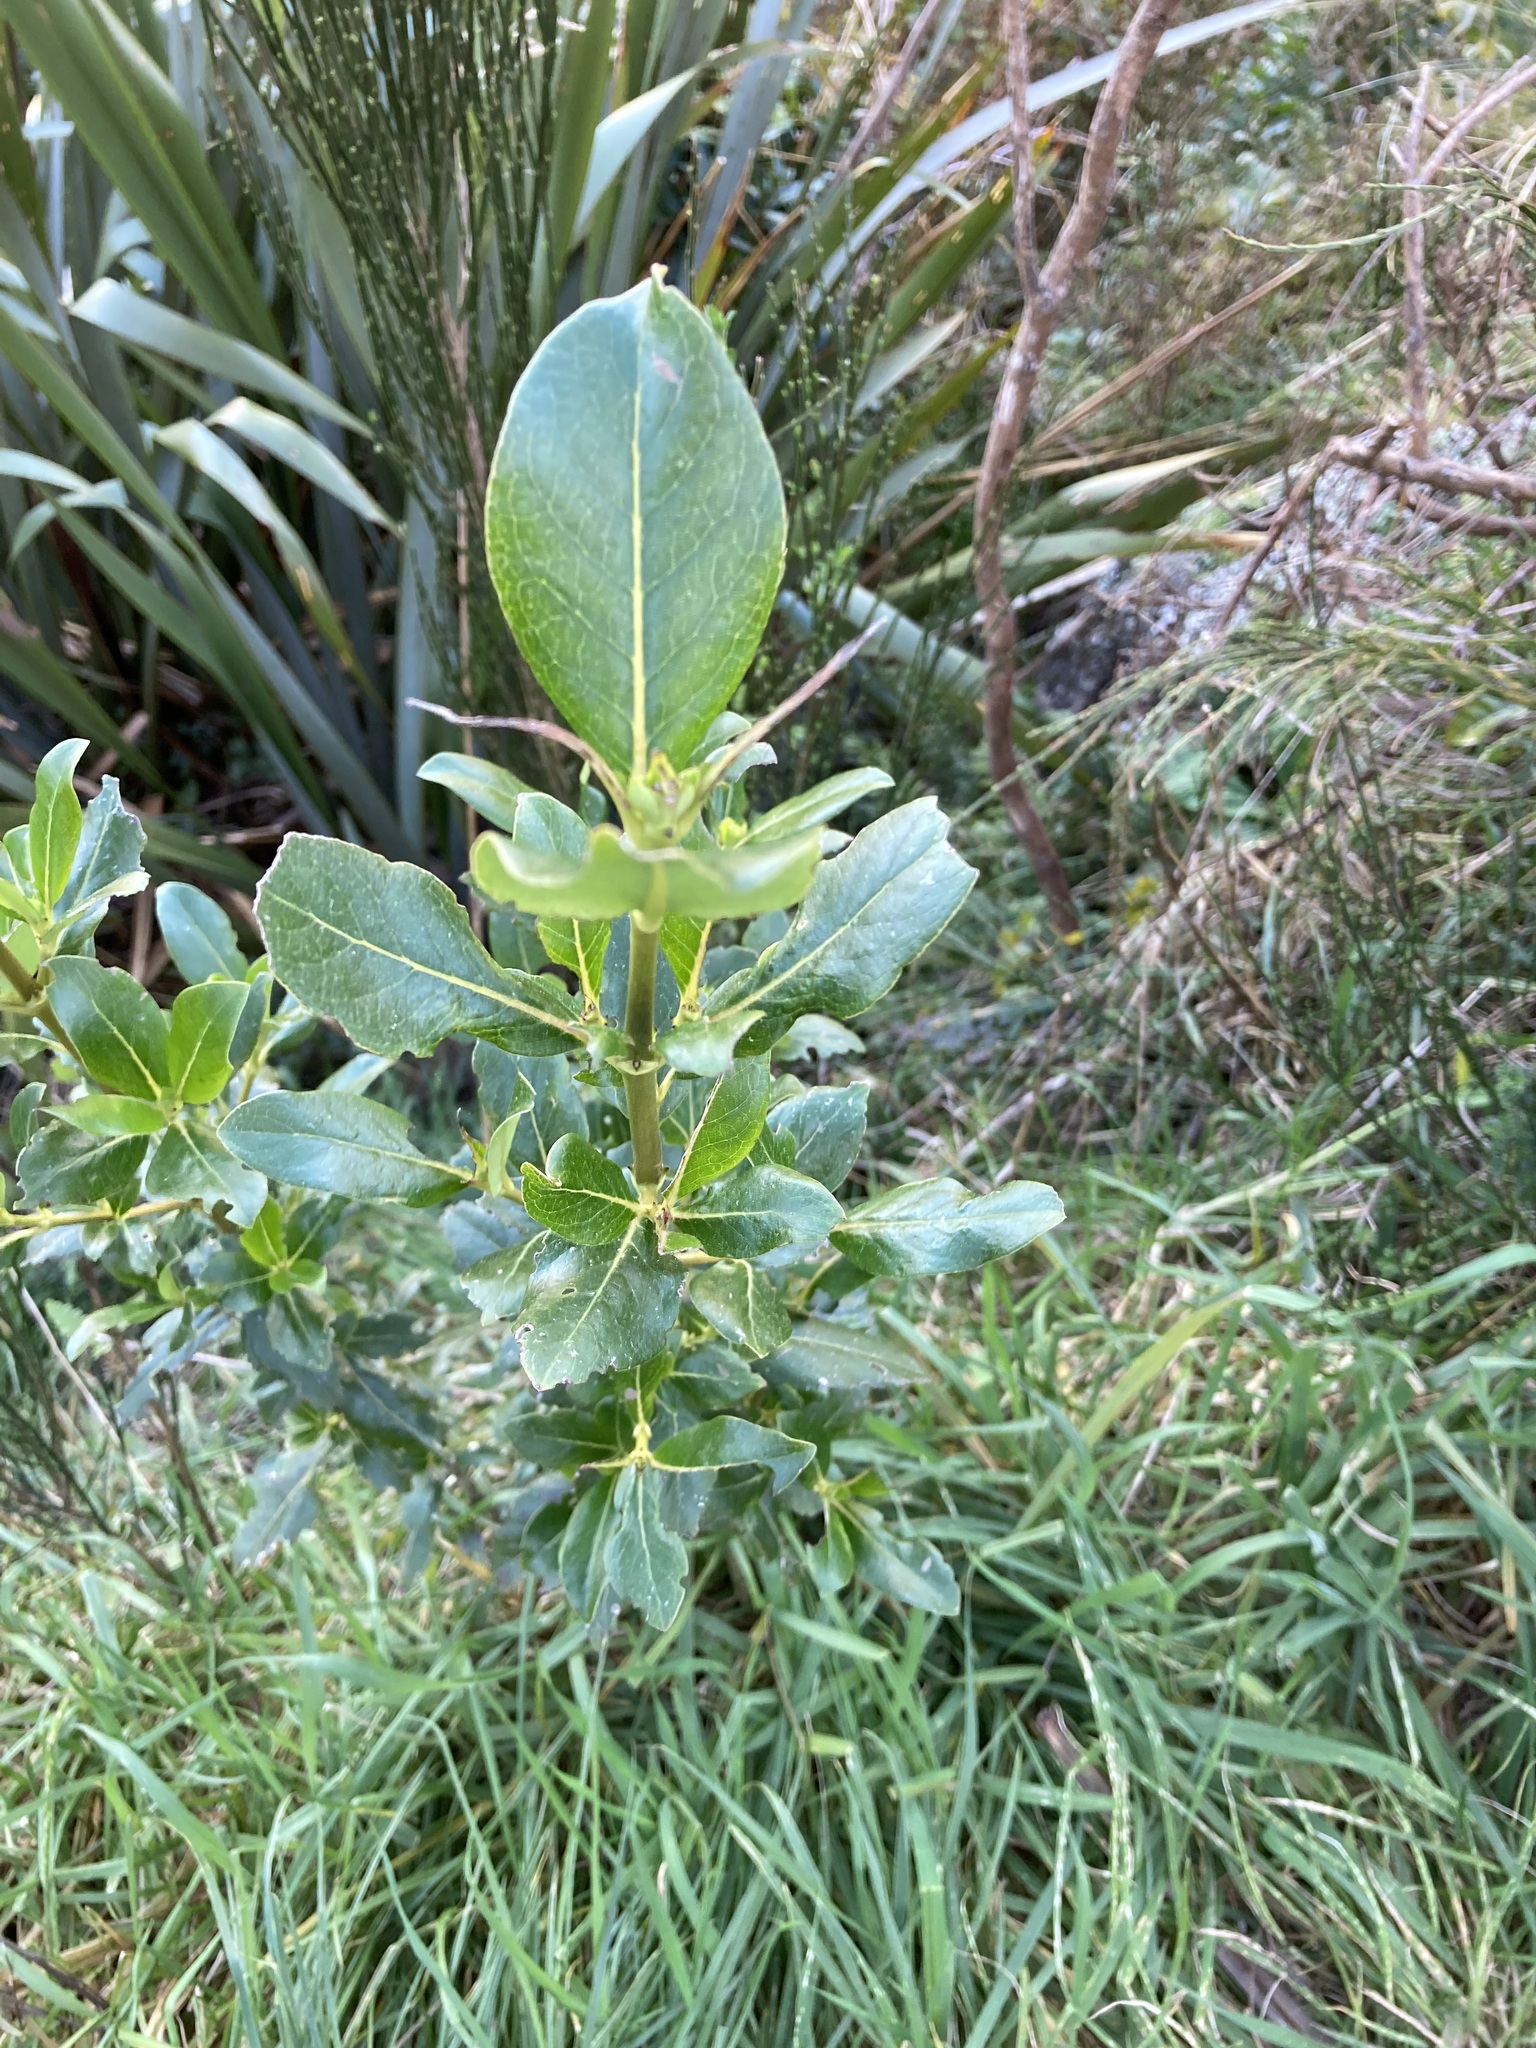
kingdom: Plantae
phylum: Tracheophyta
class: Magnoliopsida
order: Gentianales
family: Rubiaceae
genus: Coprosma
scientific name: Coprosma robusta
